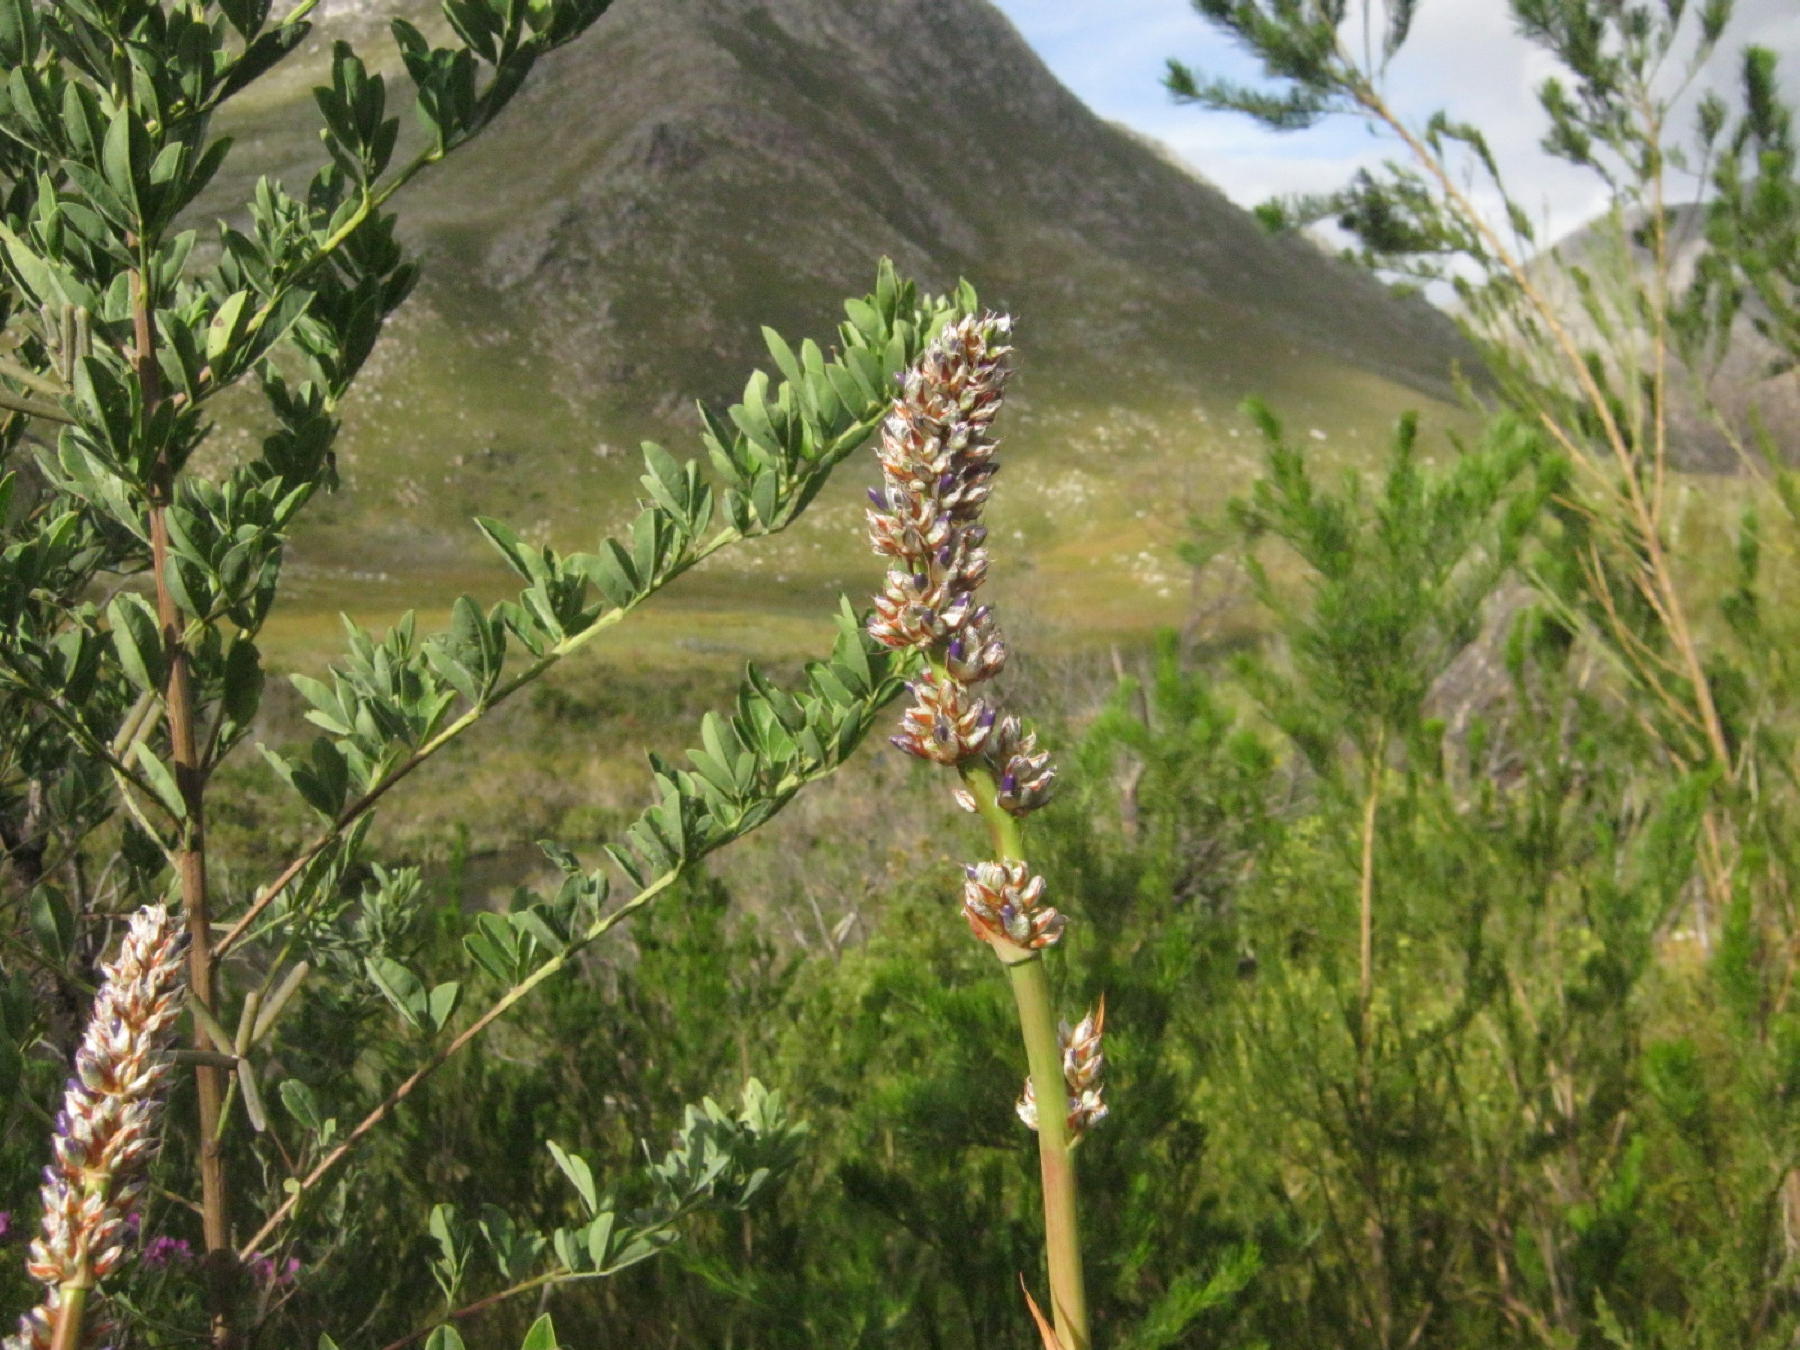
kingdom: Plantae
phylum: Tracheophyta
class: Liliopsida
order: Asparagales
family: Iridaceae
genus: Aristea
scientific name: Aristea bakeri
